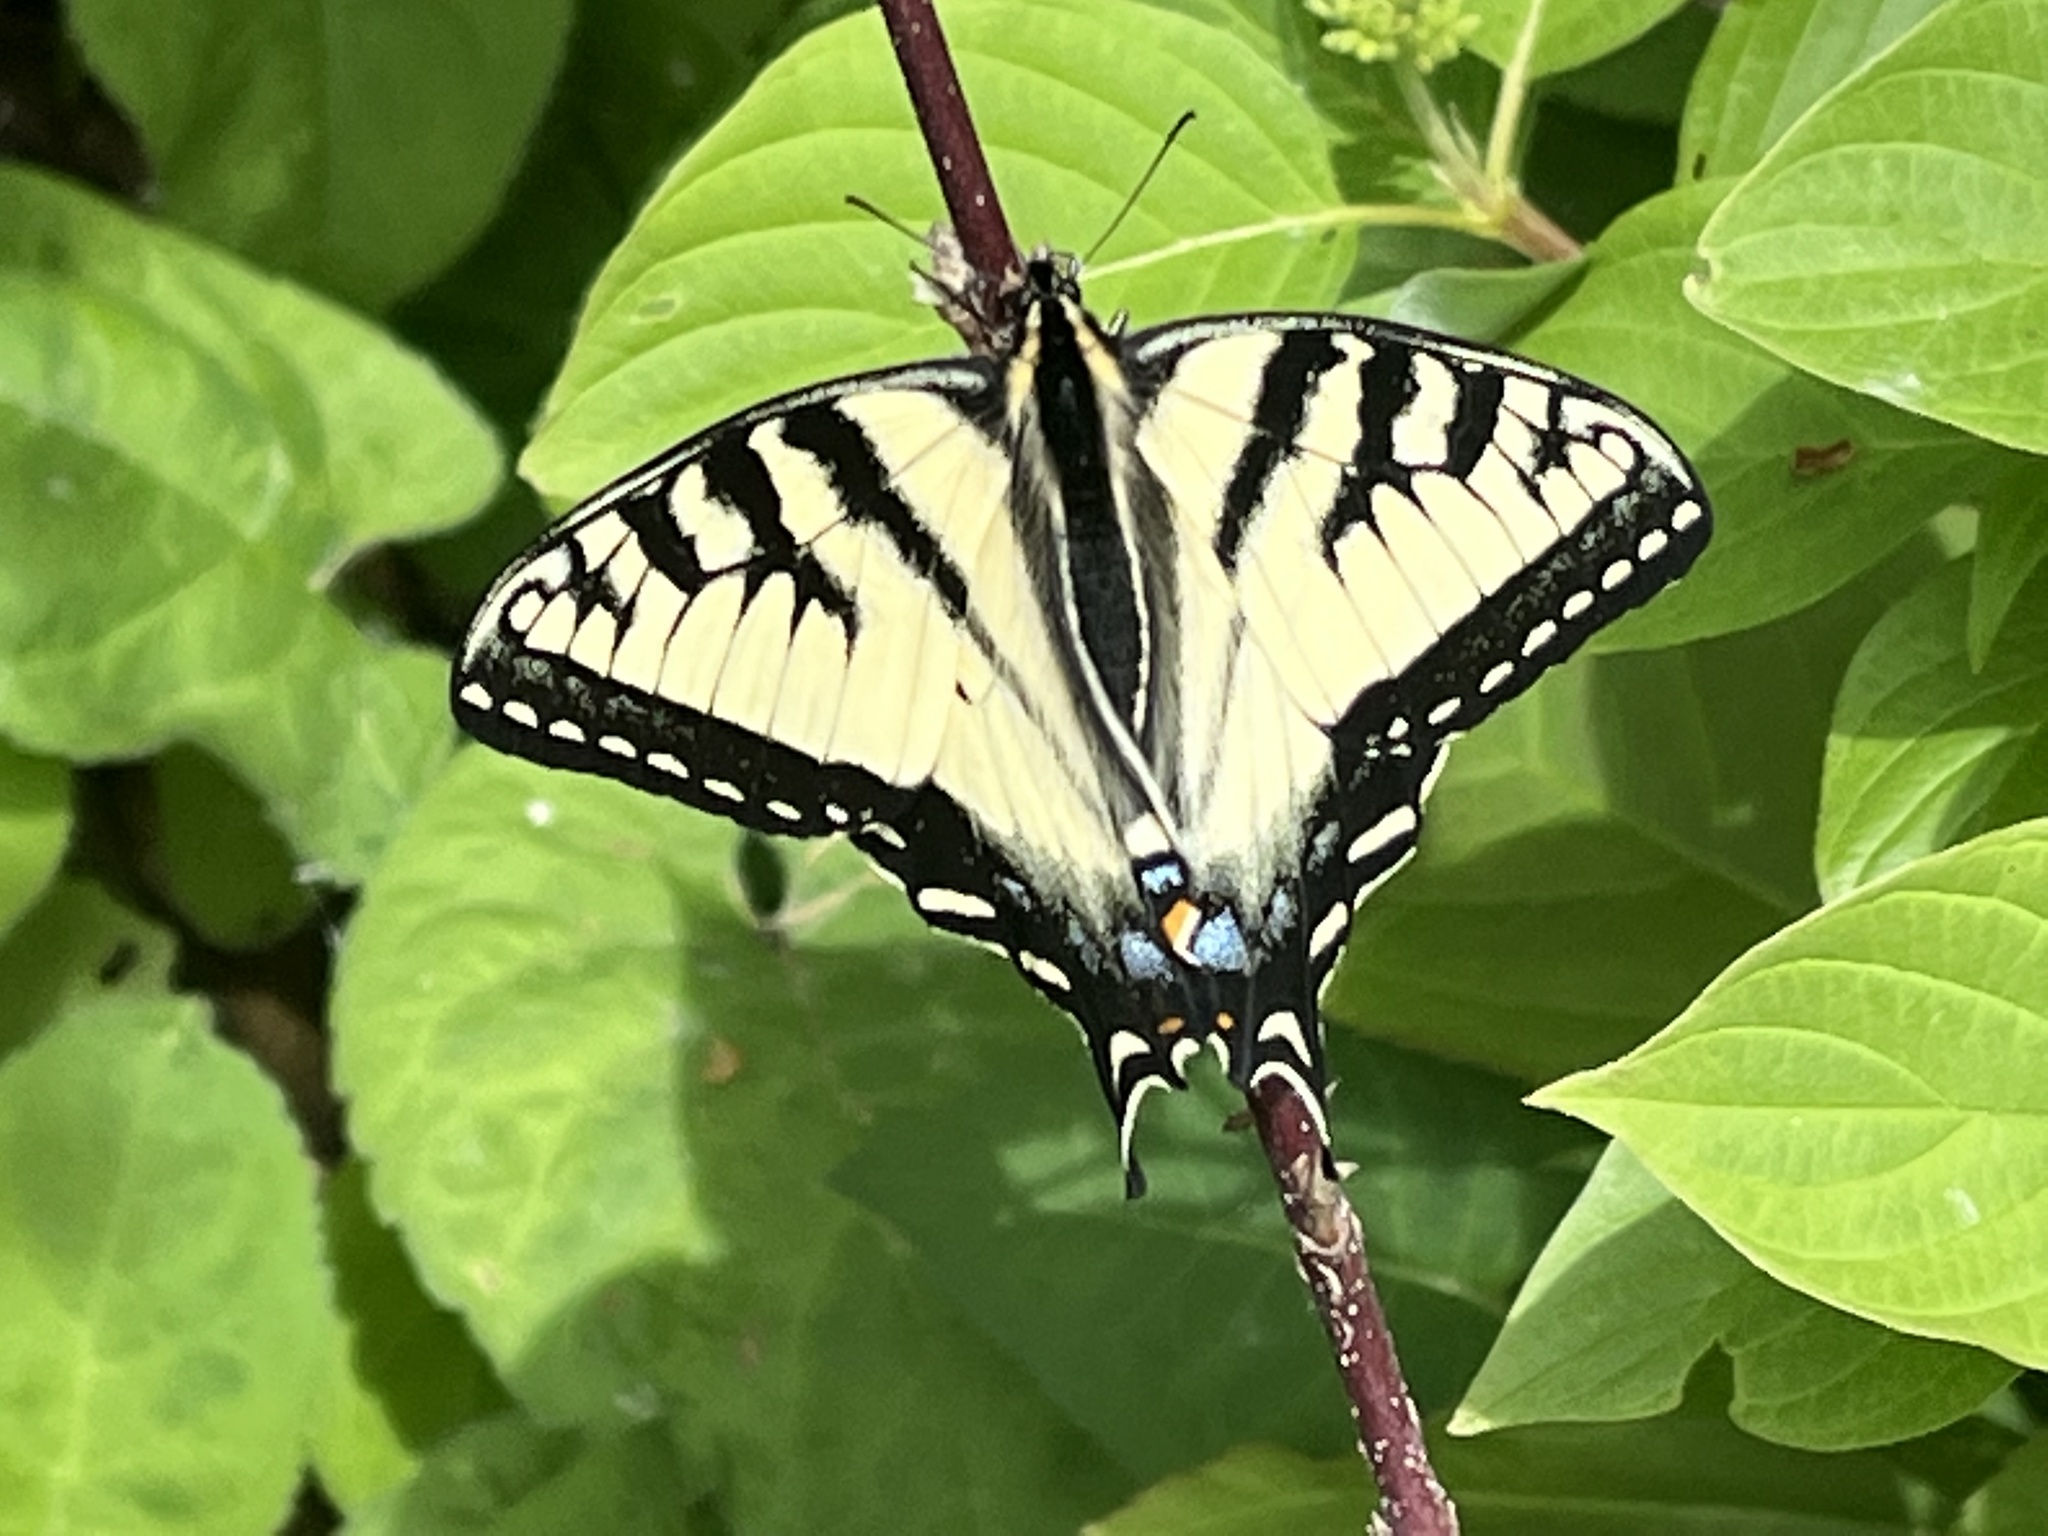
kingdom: Animalia
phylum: Arthropoda
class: Insecta
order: Lepidoptera
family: Papilionidae
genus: Papilio
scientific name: Papilio canadensis
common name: Canadian tiger swallowtail
